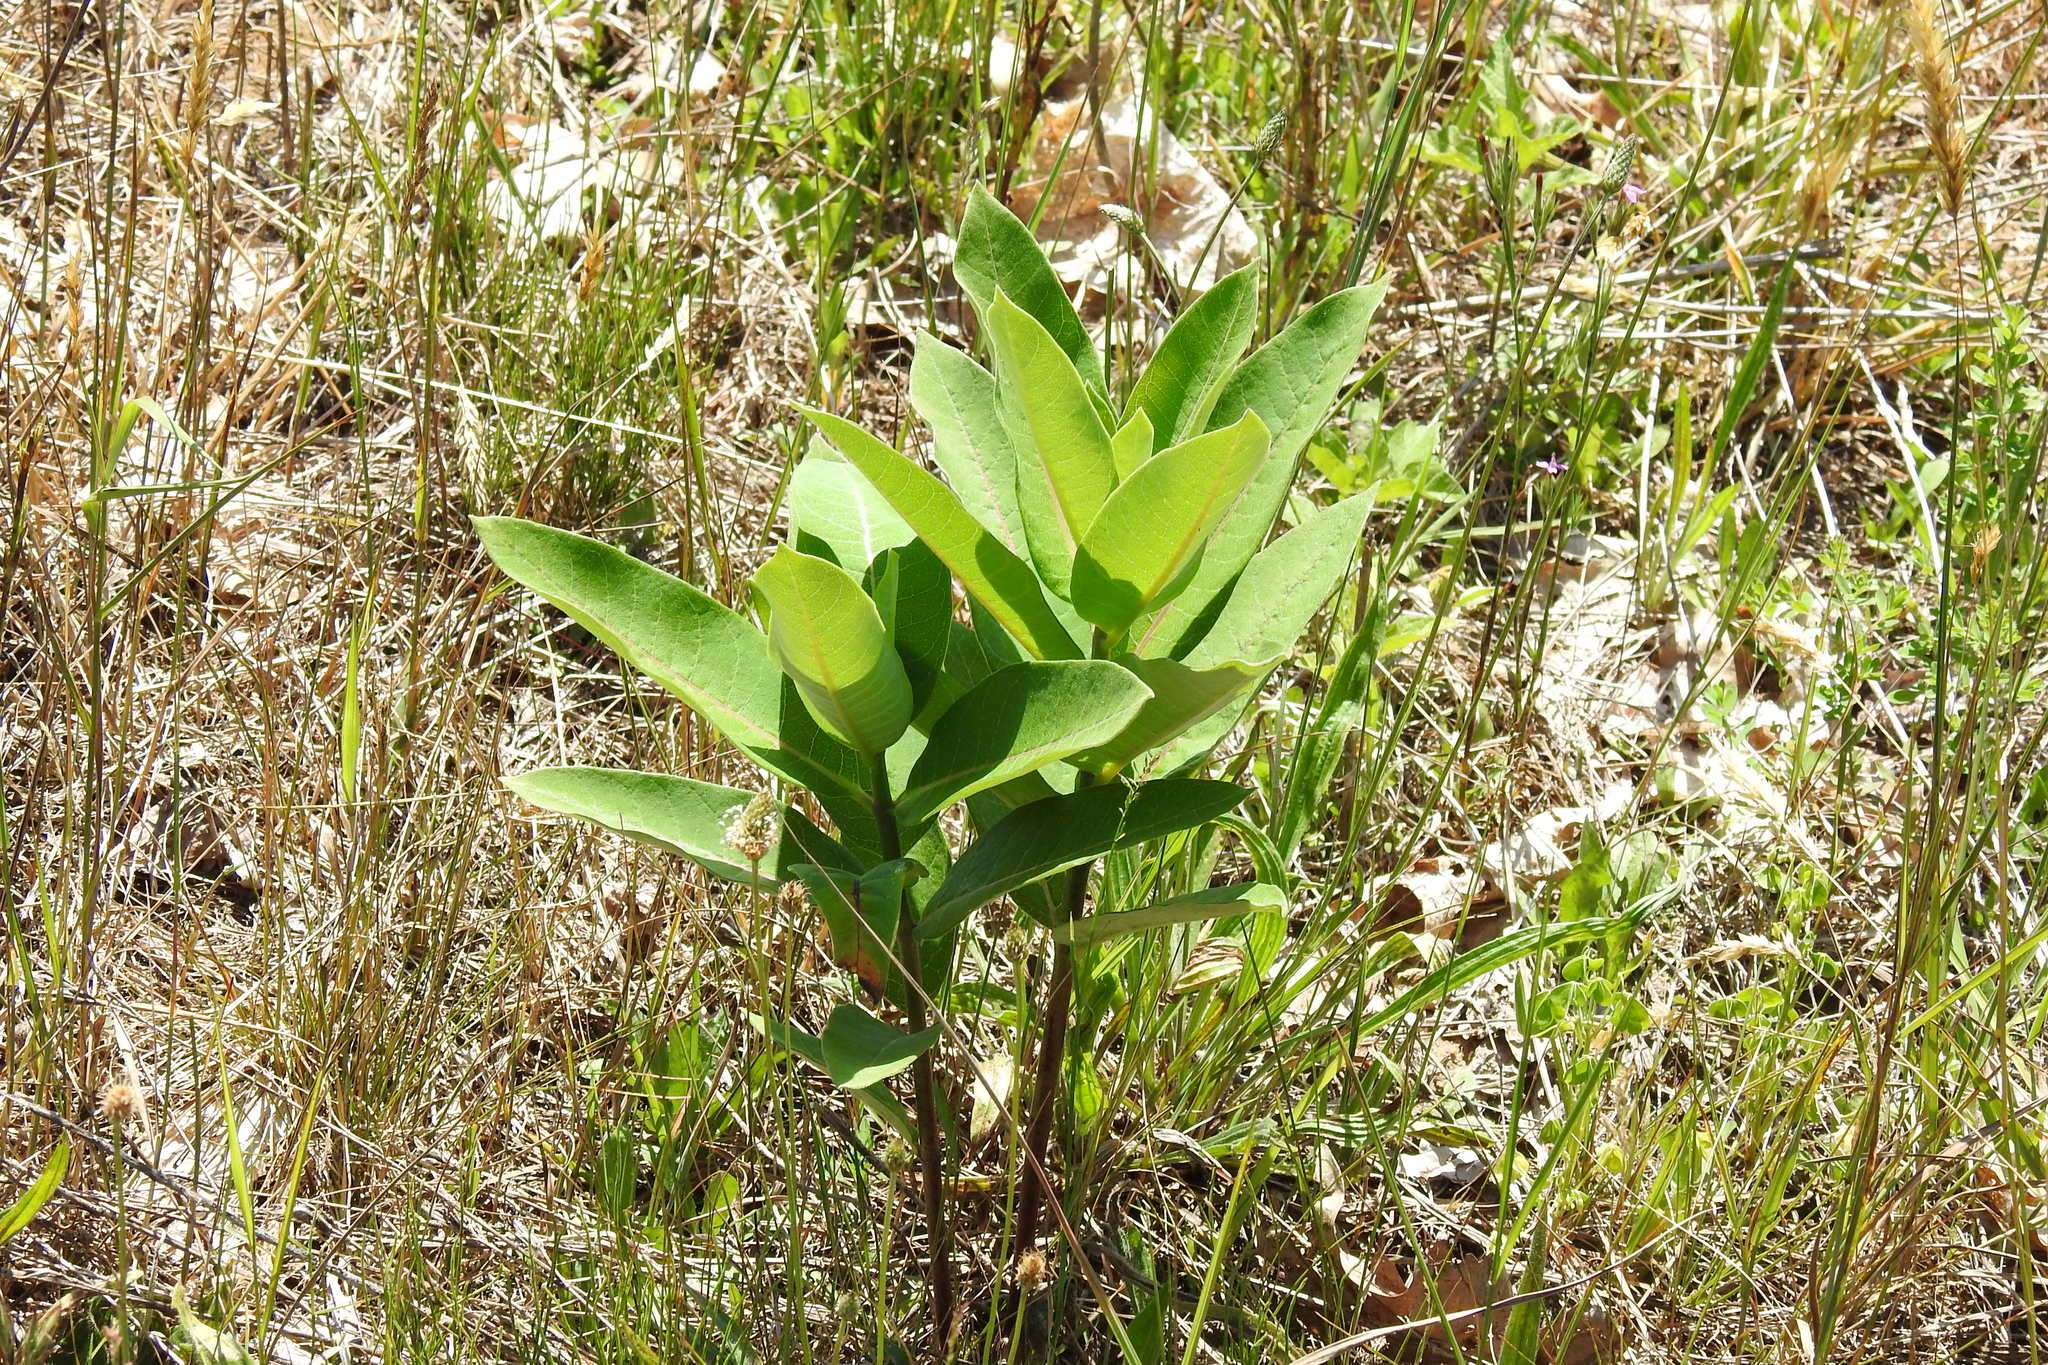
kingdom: Plantae
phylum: Tracheophyta
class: Magnoliopsida
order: Gentianales
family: Apocynaceae
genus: Asclepias
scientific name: Asclepias syriaca
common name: Common milkweed
